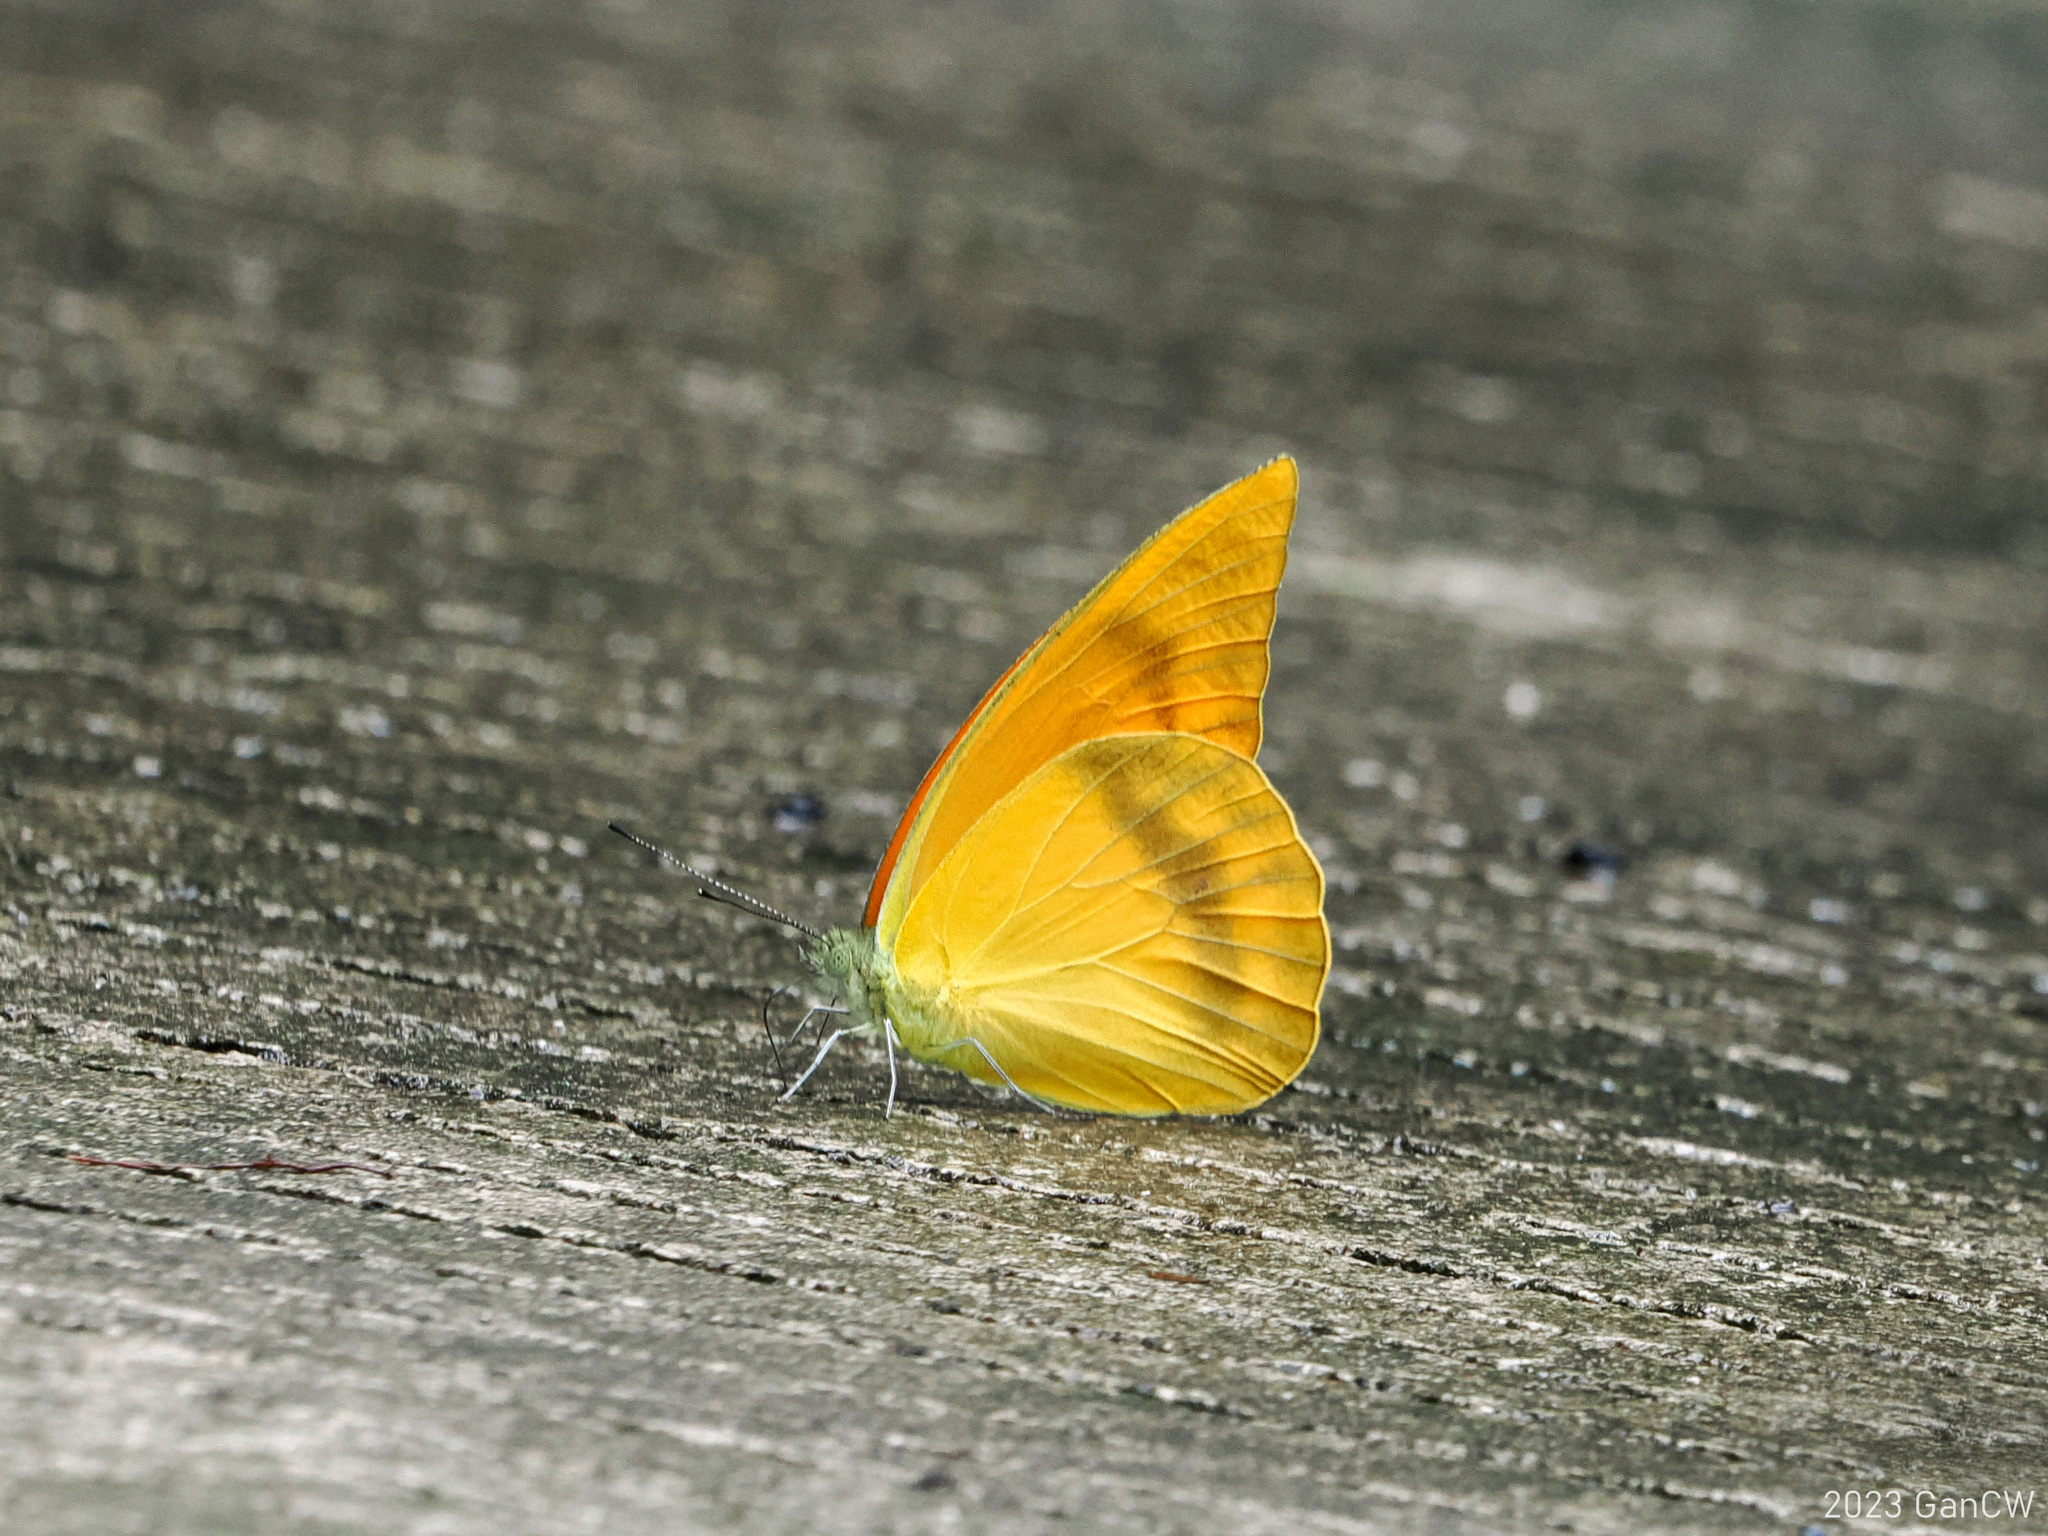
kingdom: Animalia
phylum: Arthropoda
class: Insecta
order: Lepidoptera
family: Pieridae
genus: Appias
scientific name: Appias zarinda
